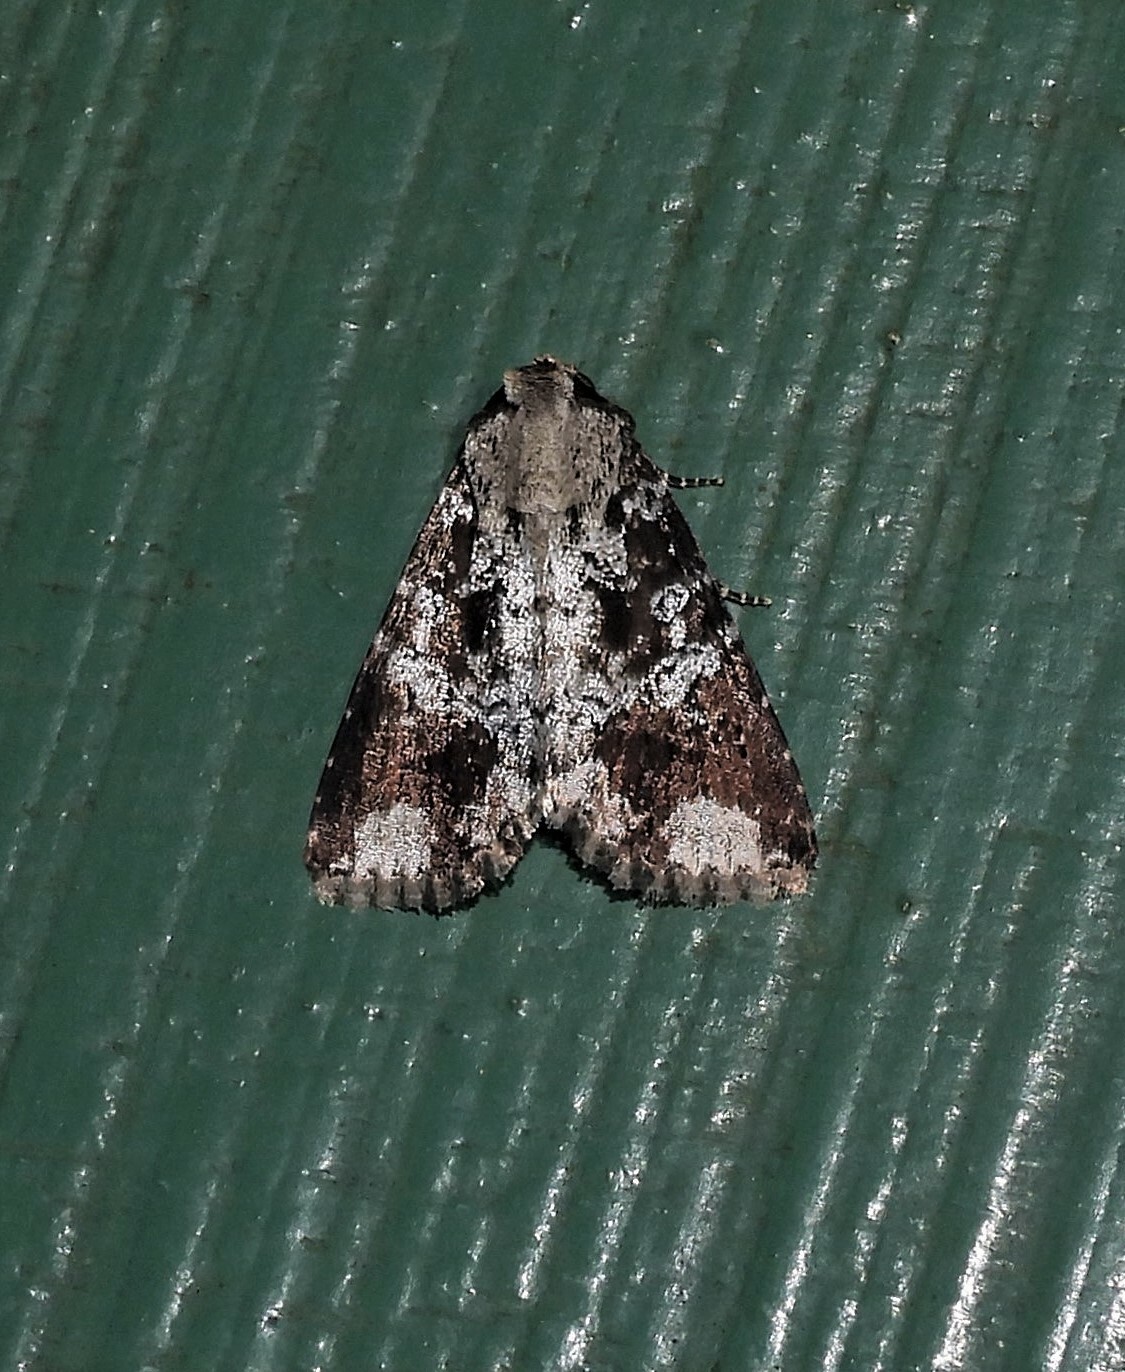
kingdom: Animalia
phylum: Arthropoda
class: Insecta
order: Lepidoptera
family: Noctuidae
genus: Condica
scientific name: Condica cupentia
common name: Splotched groundling
